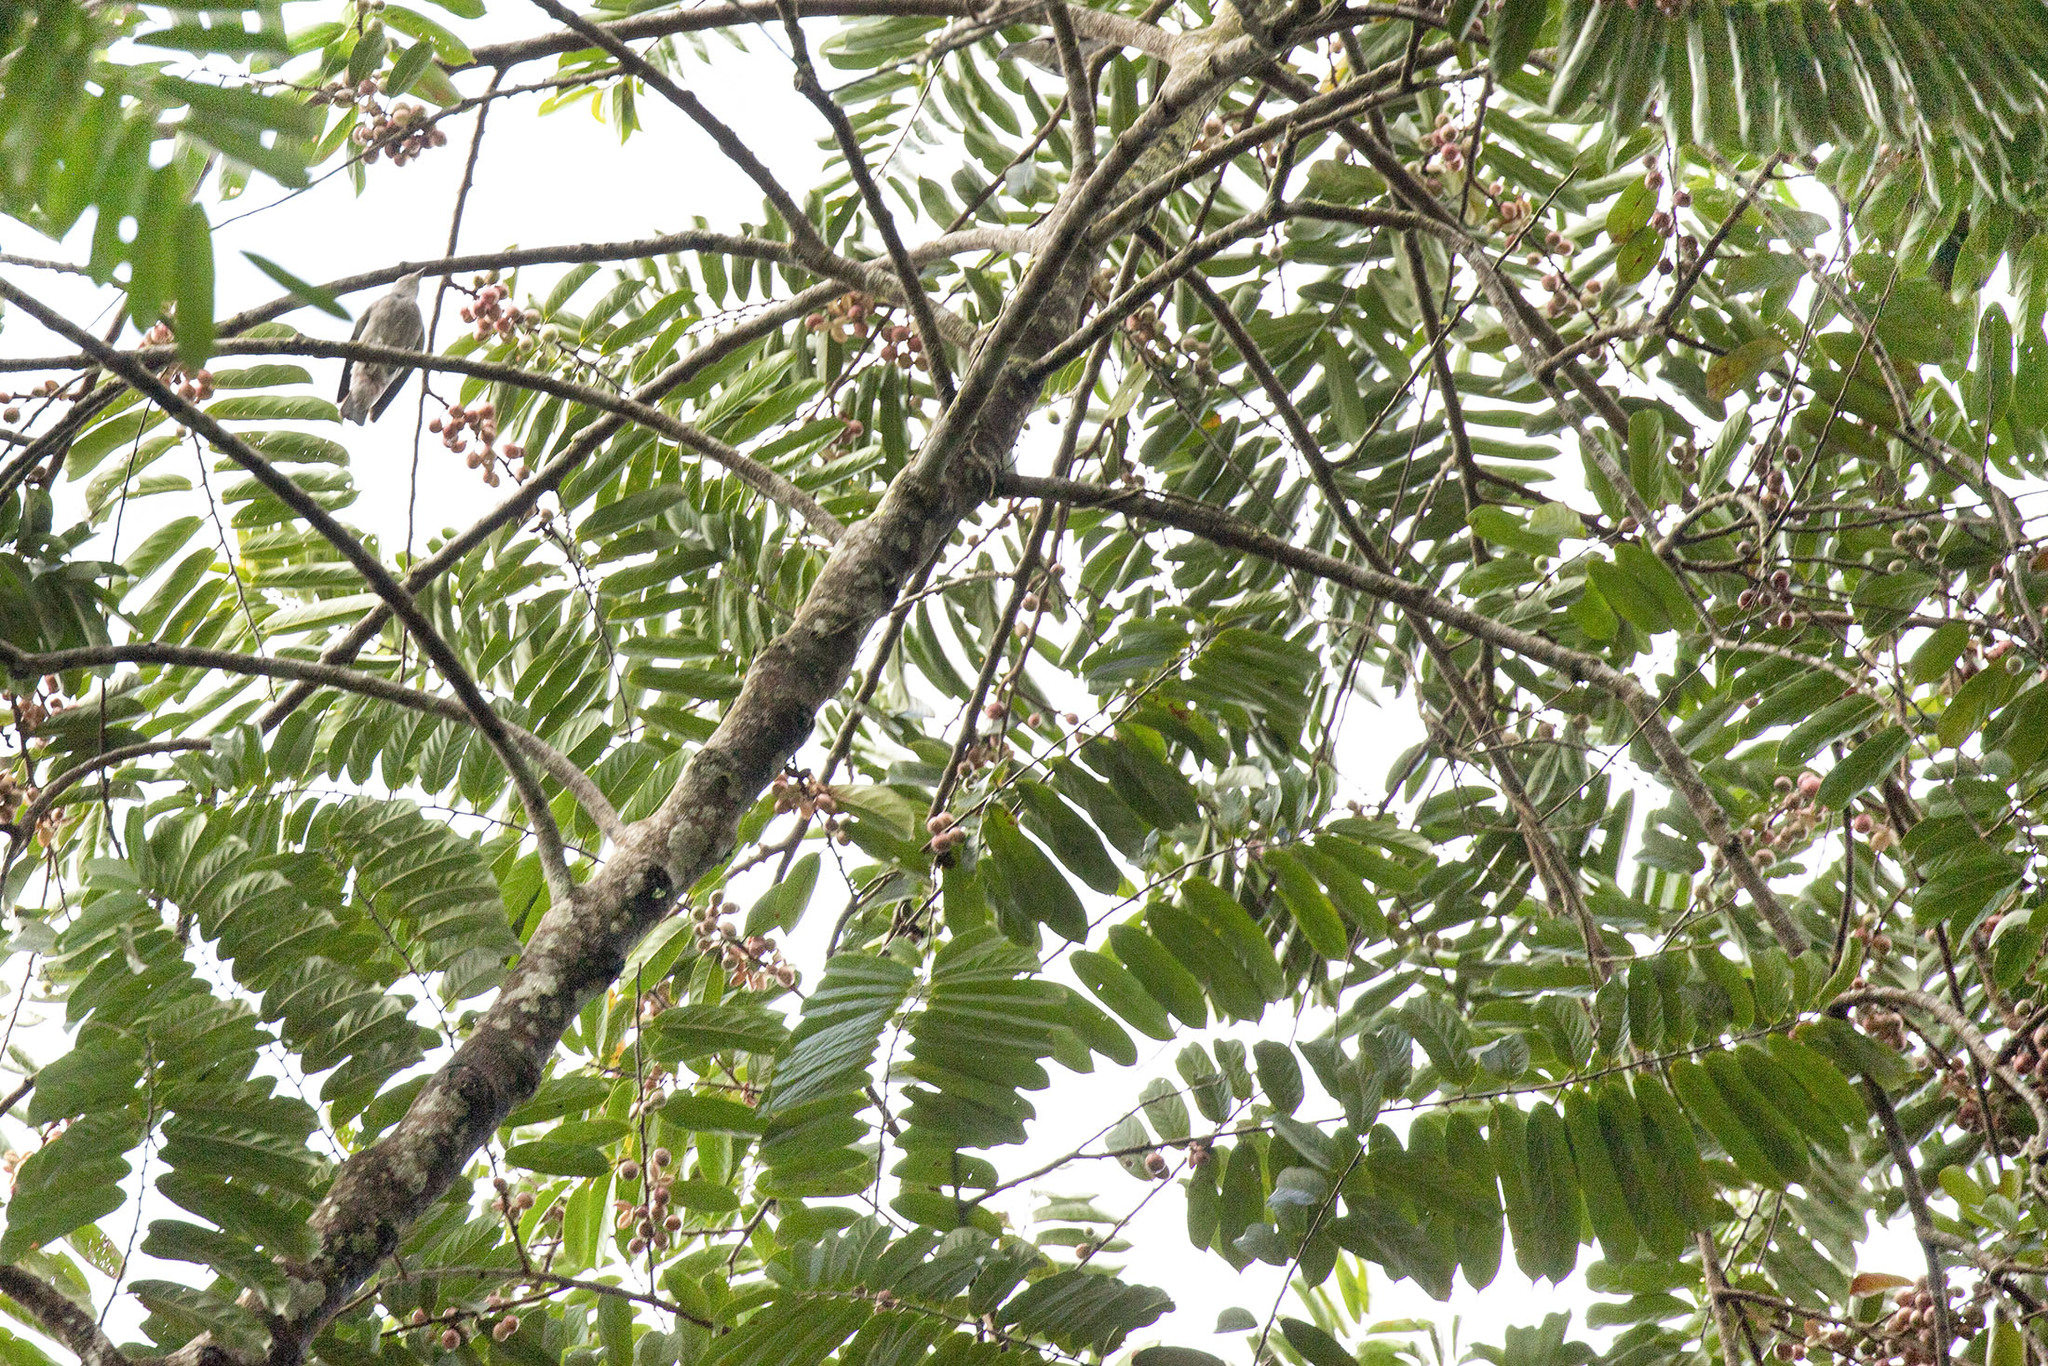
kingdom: Plantae
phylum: Tracheophyta
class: Magnoliopsida
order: Malpighiales
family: Salicaceae
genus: Casearia
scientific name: Casearia bicolor
